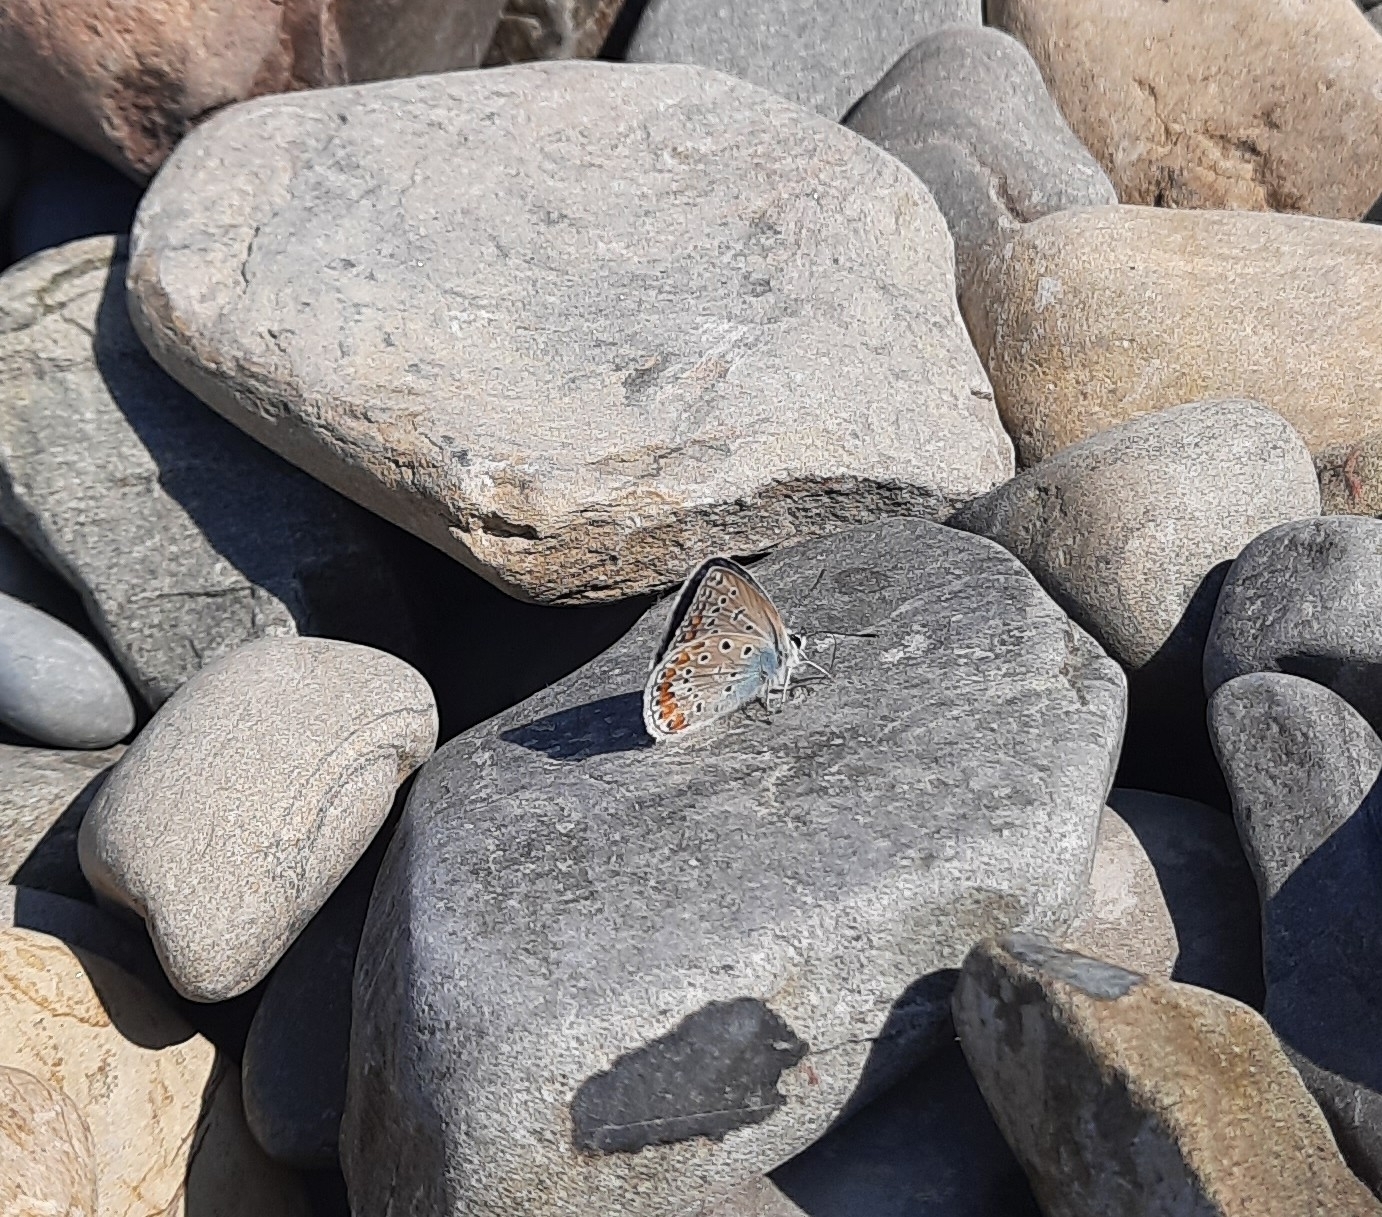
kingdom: Animalia
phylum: Arthropoda
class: Insecta
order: Lepidoptera
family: Lycaenidae
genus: Polyommatus
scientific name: Polyommatus icarus
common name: Common blue
